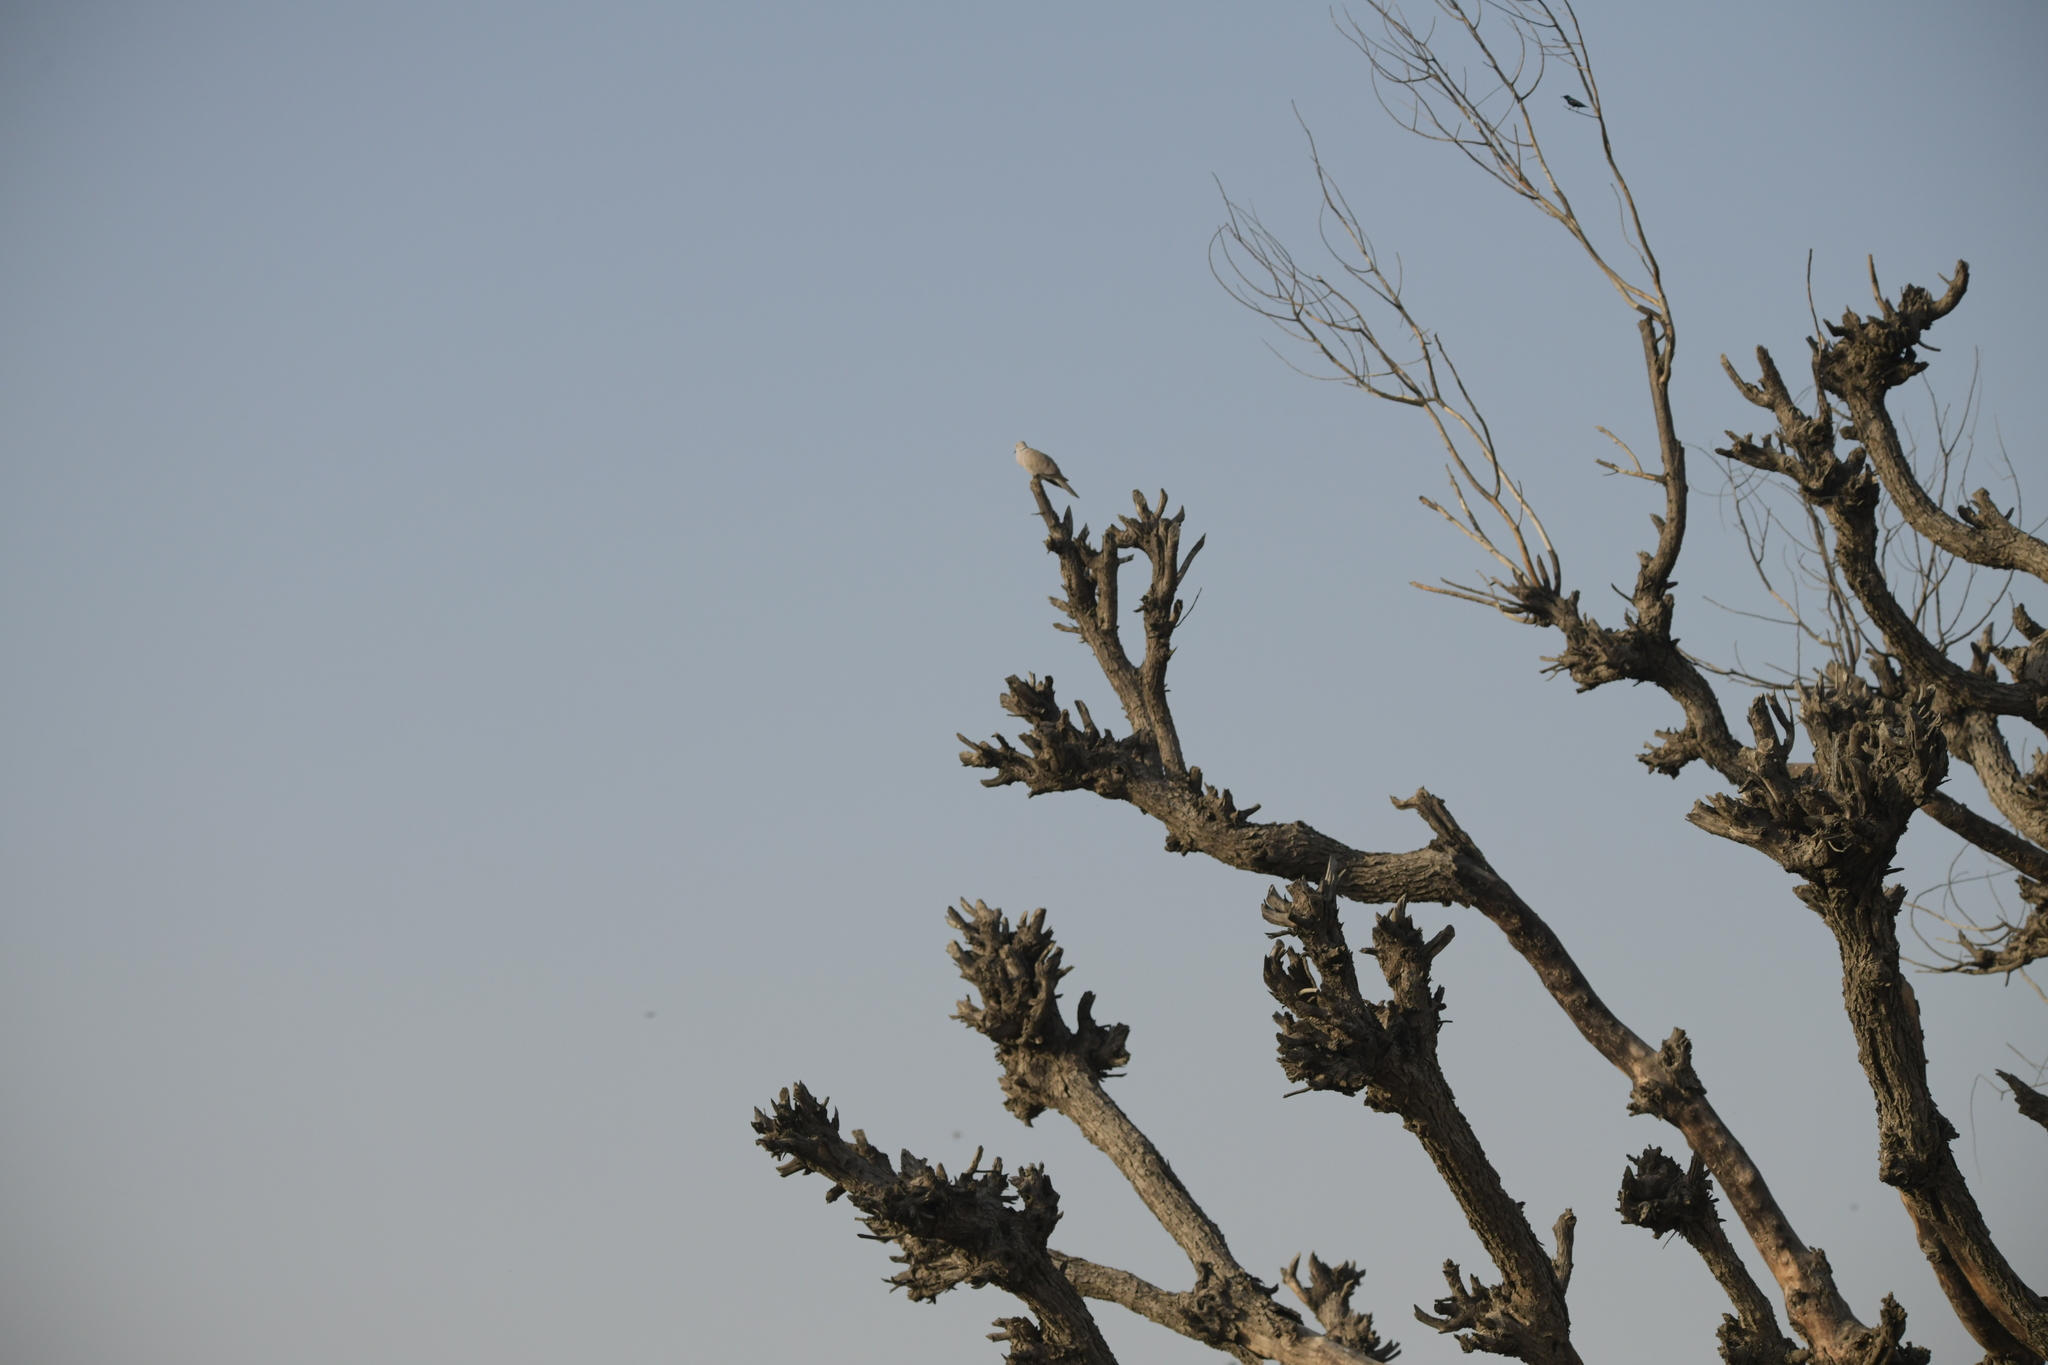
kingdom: Animalia
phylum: Chordata
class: Aves
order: Columbiformes
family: Columbidae
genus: Streptopelia
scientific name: Streptopelia decaocto
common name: Eurasian collared dove
